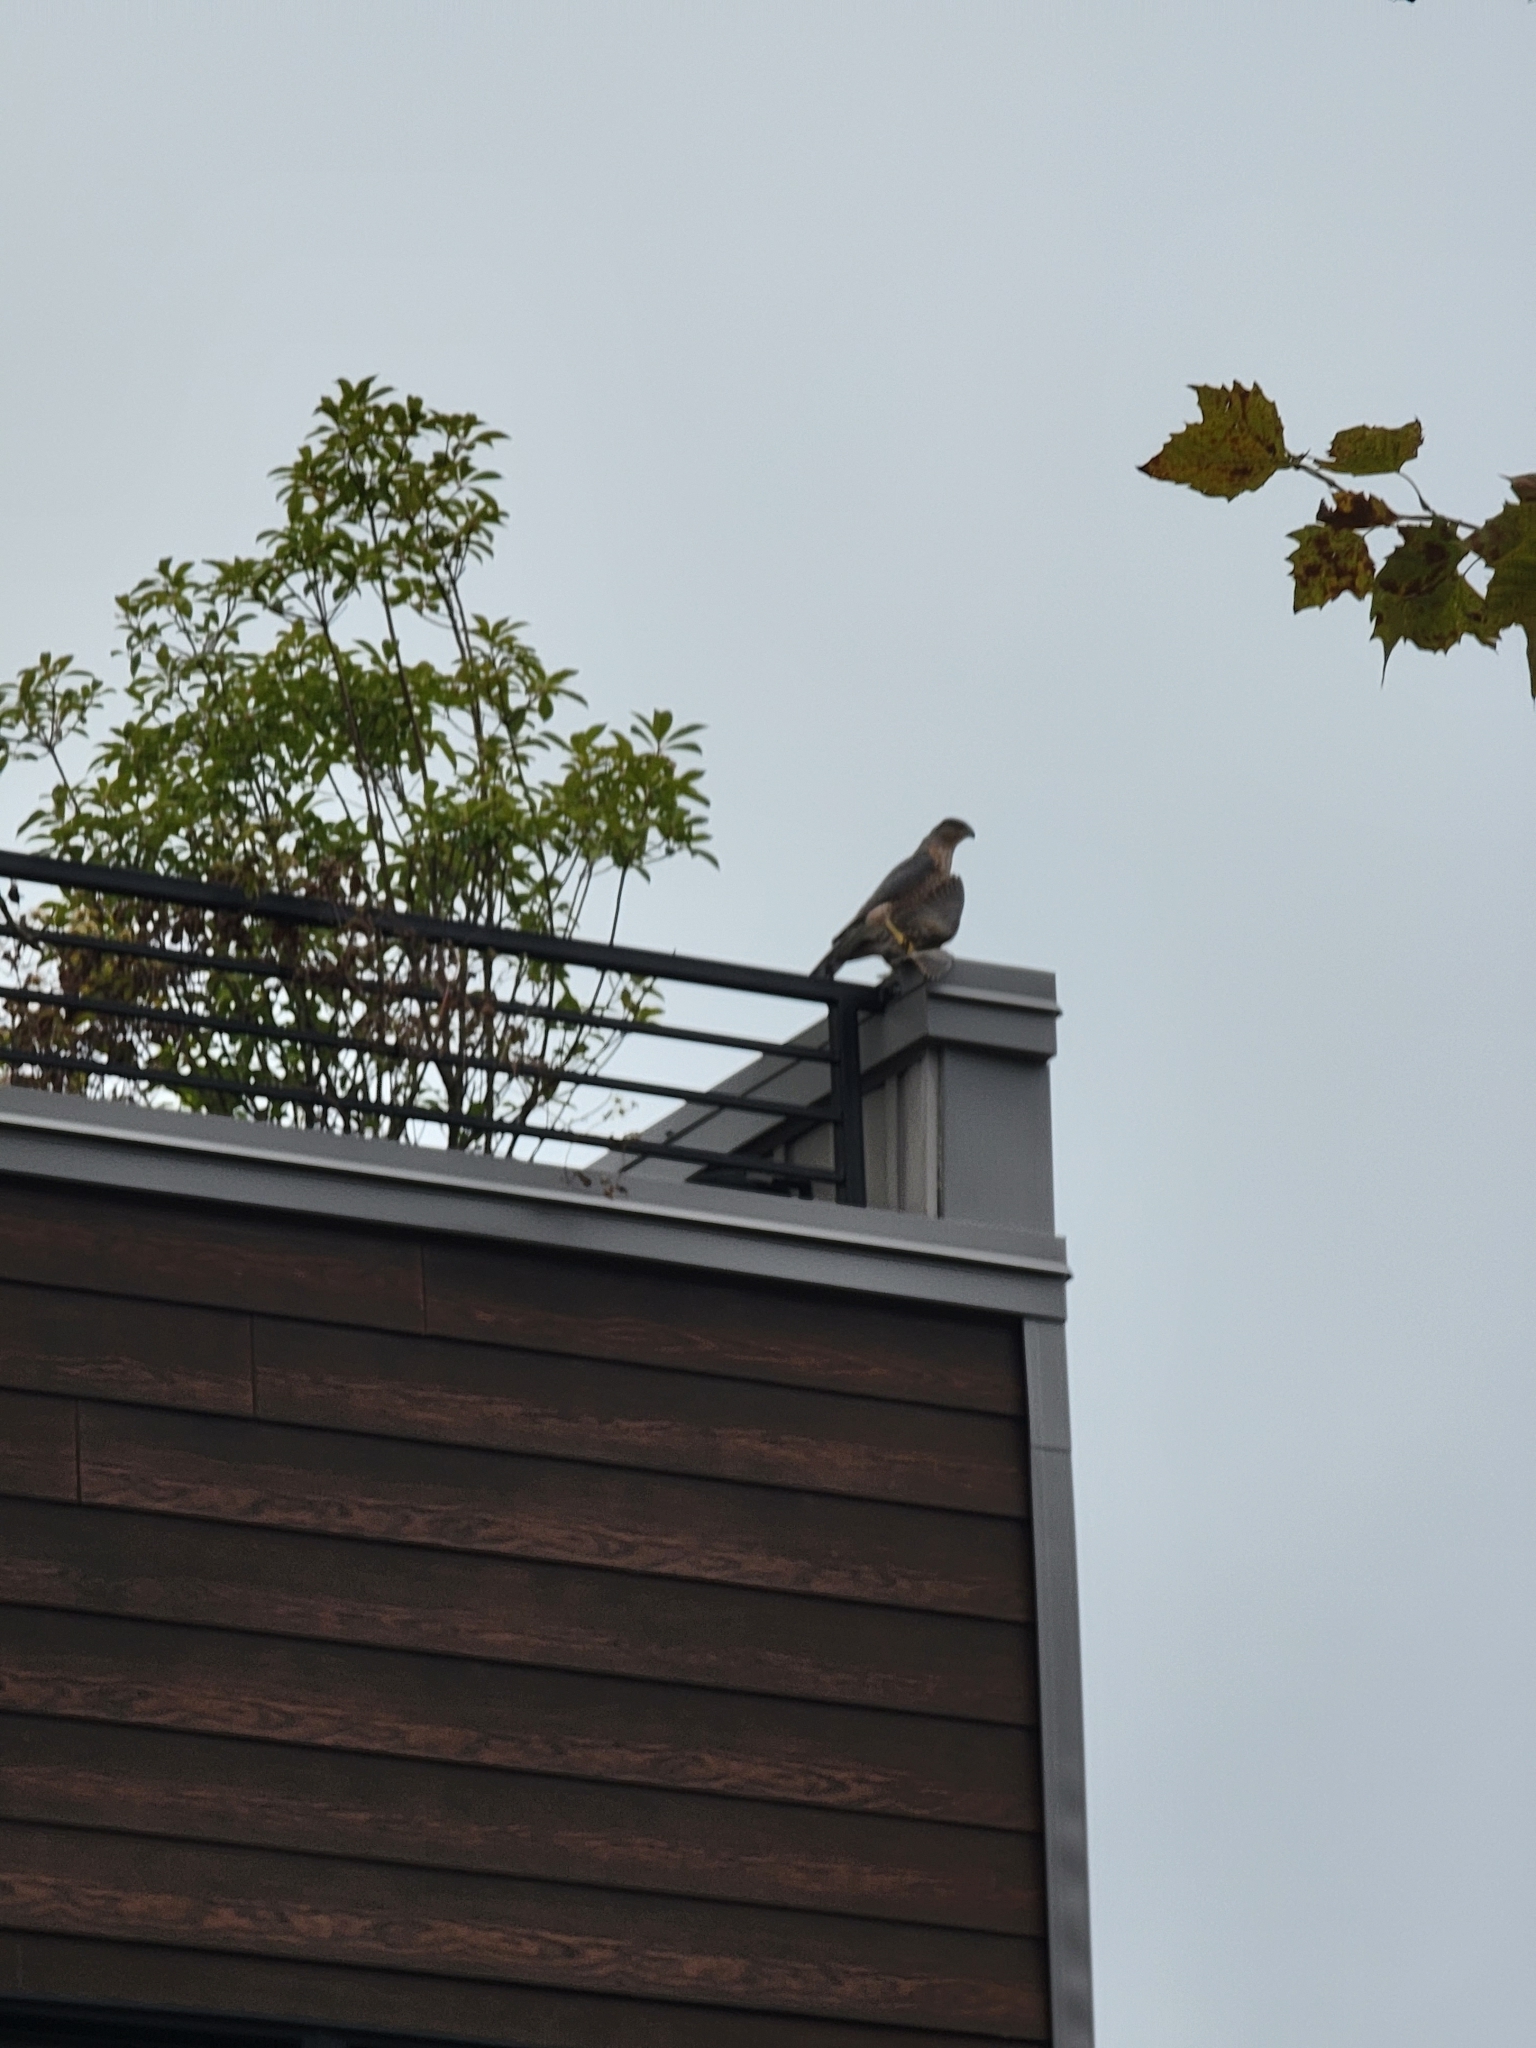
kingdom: Animalia
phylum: Chordata
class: Aves
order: Accipitriformes
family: Accipitridae
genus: Accipiter
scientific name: Accipiter cooperii
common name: Cooper's hawk
